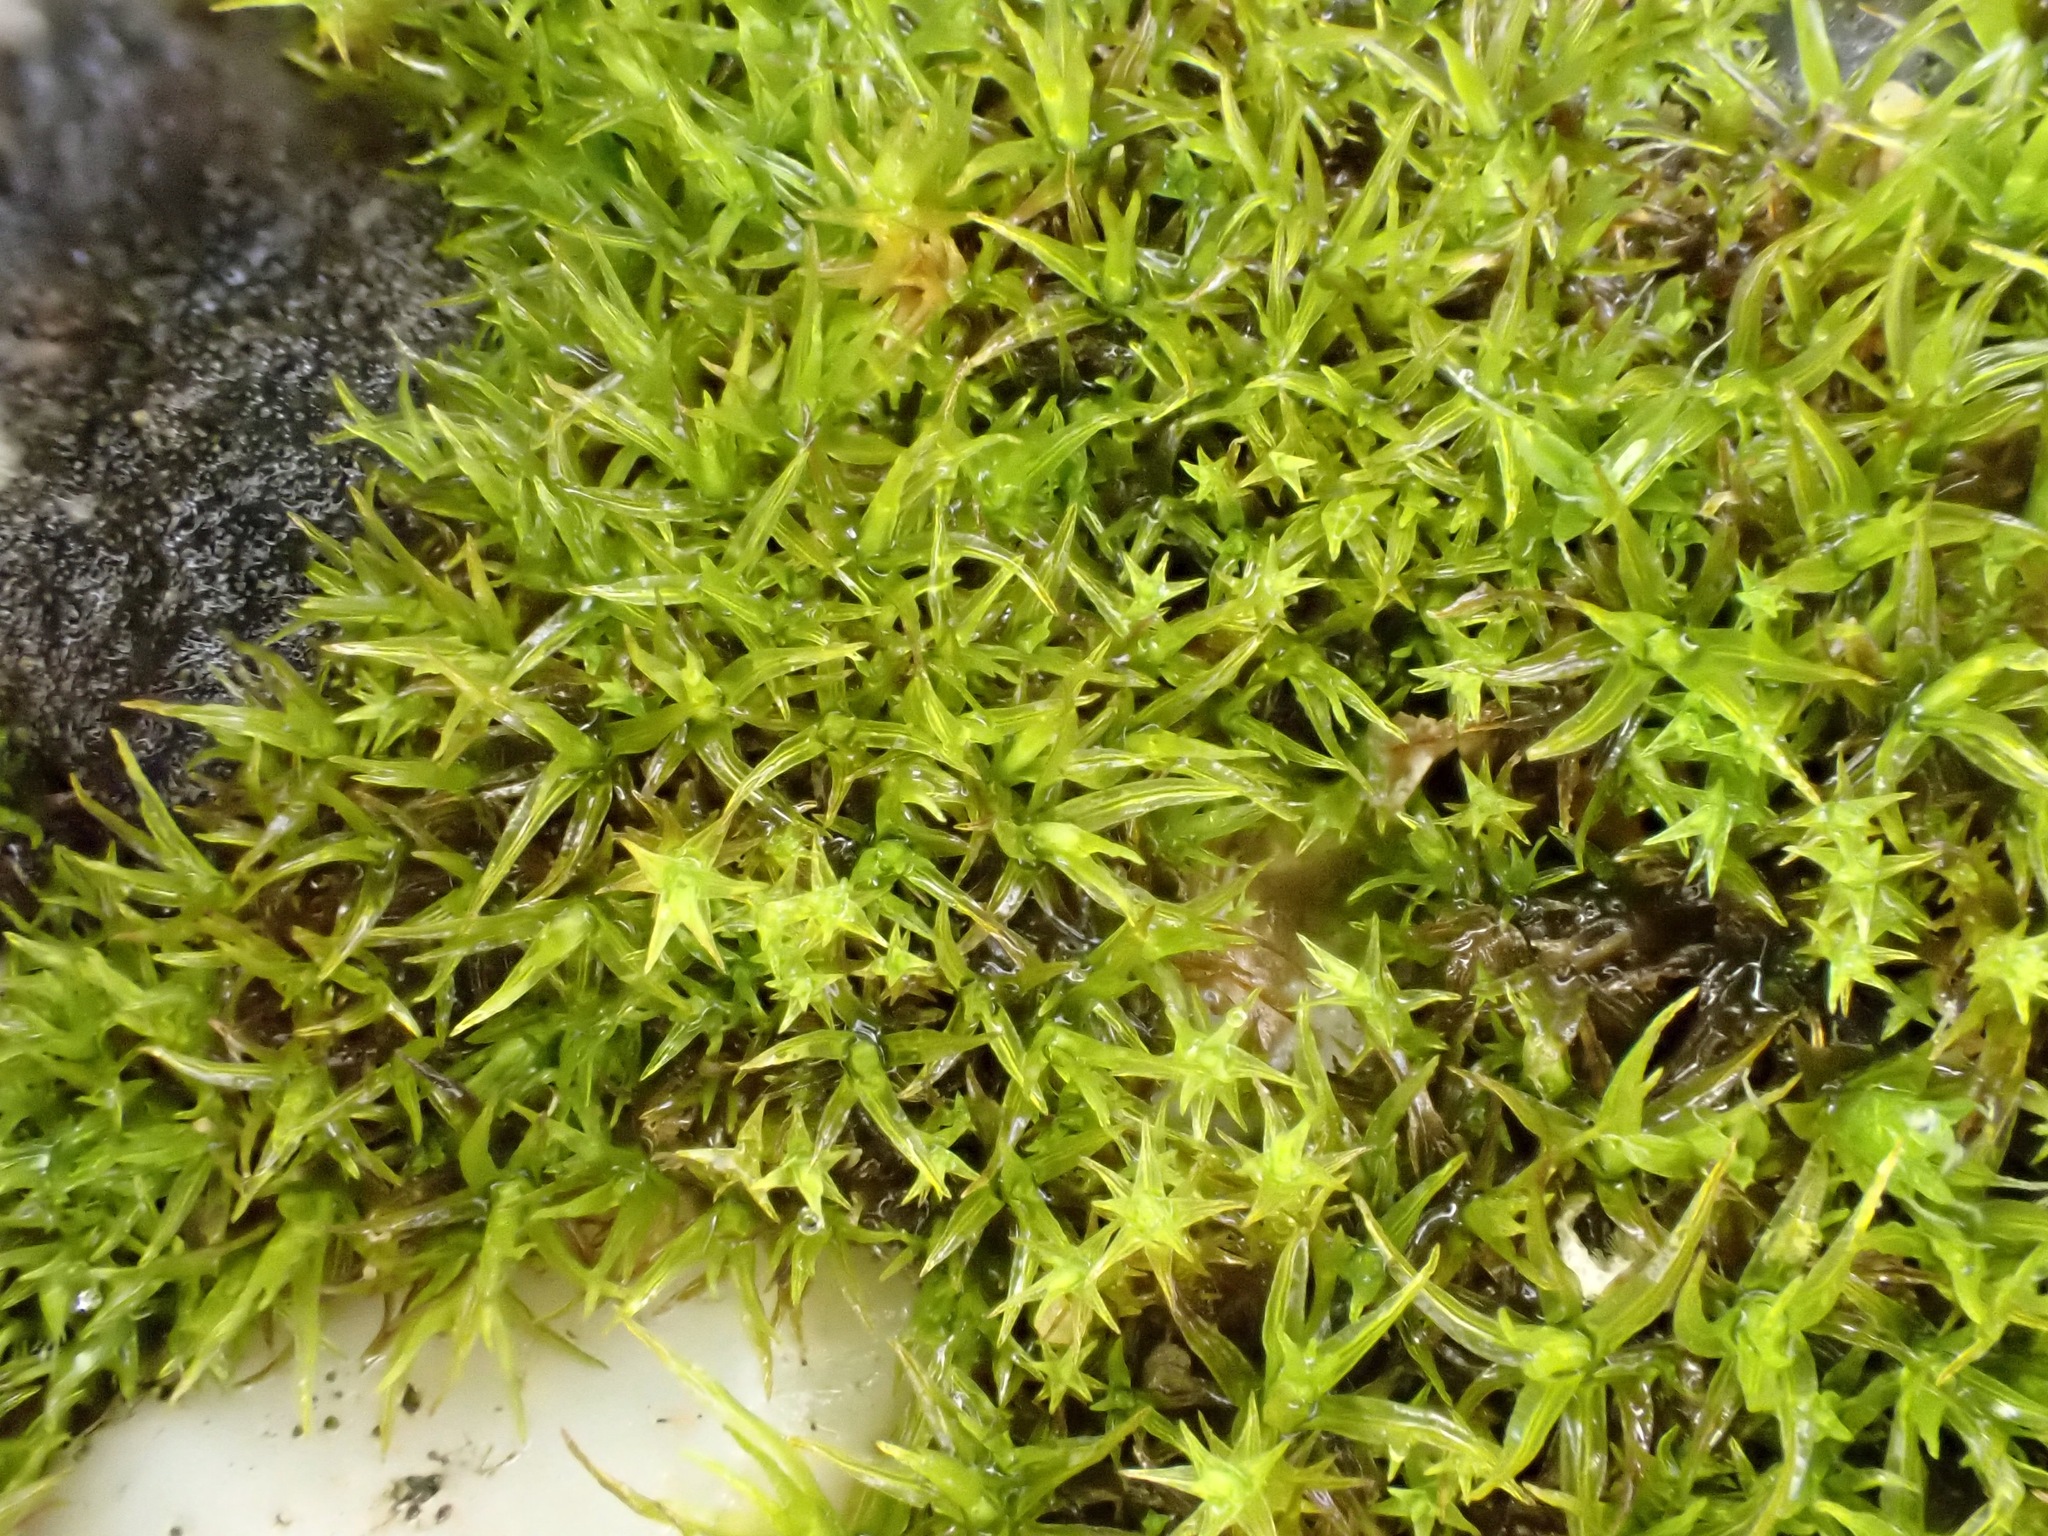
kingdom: Plantae
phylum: Bryophyta
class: Bryopsida
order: Pottiales
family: Pottiaceae
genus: Vinealobryum
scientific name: Vinealobryum vineale
